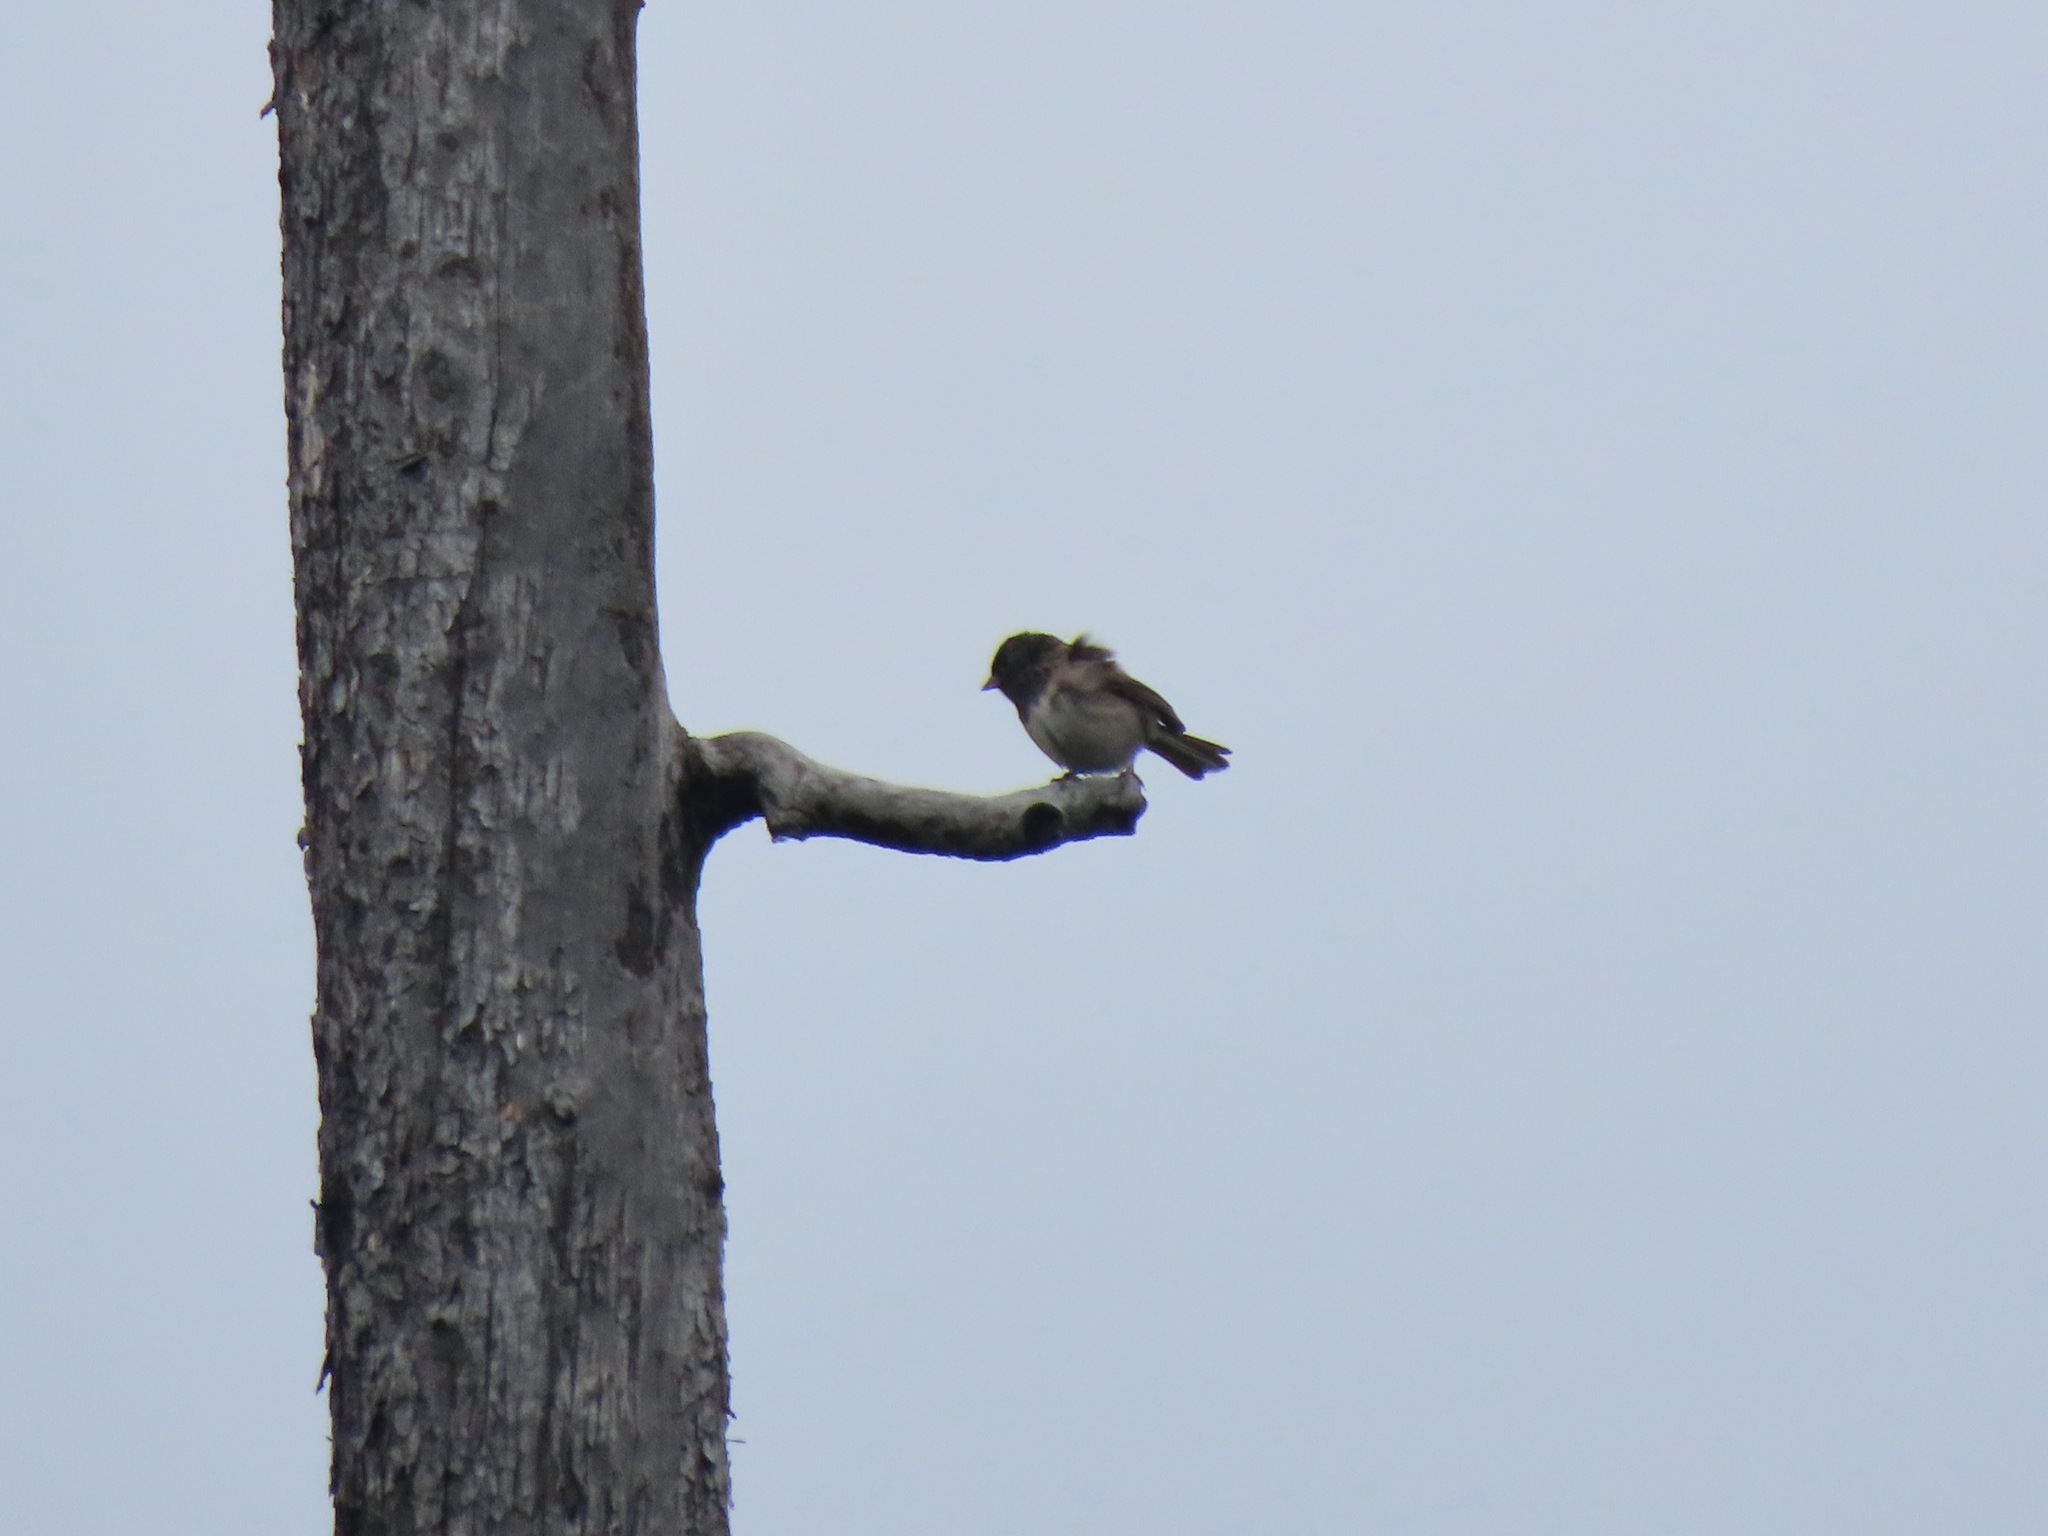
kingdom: Animalia
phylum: Chordata
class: Aves
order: Passeriformes
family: Passerellidae
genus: Junco
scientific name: Junco hyemalis
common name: Dark-eyed junco
